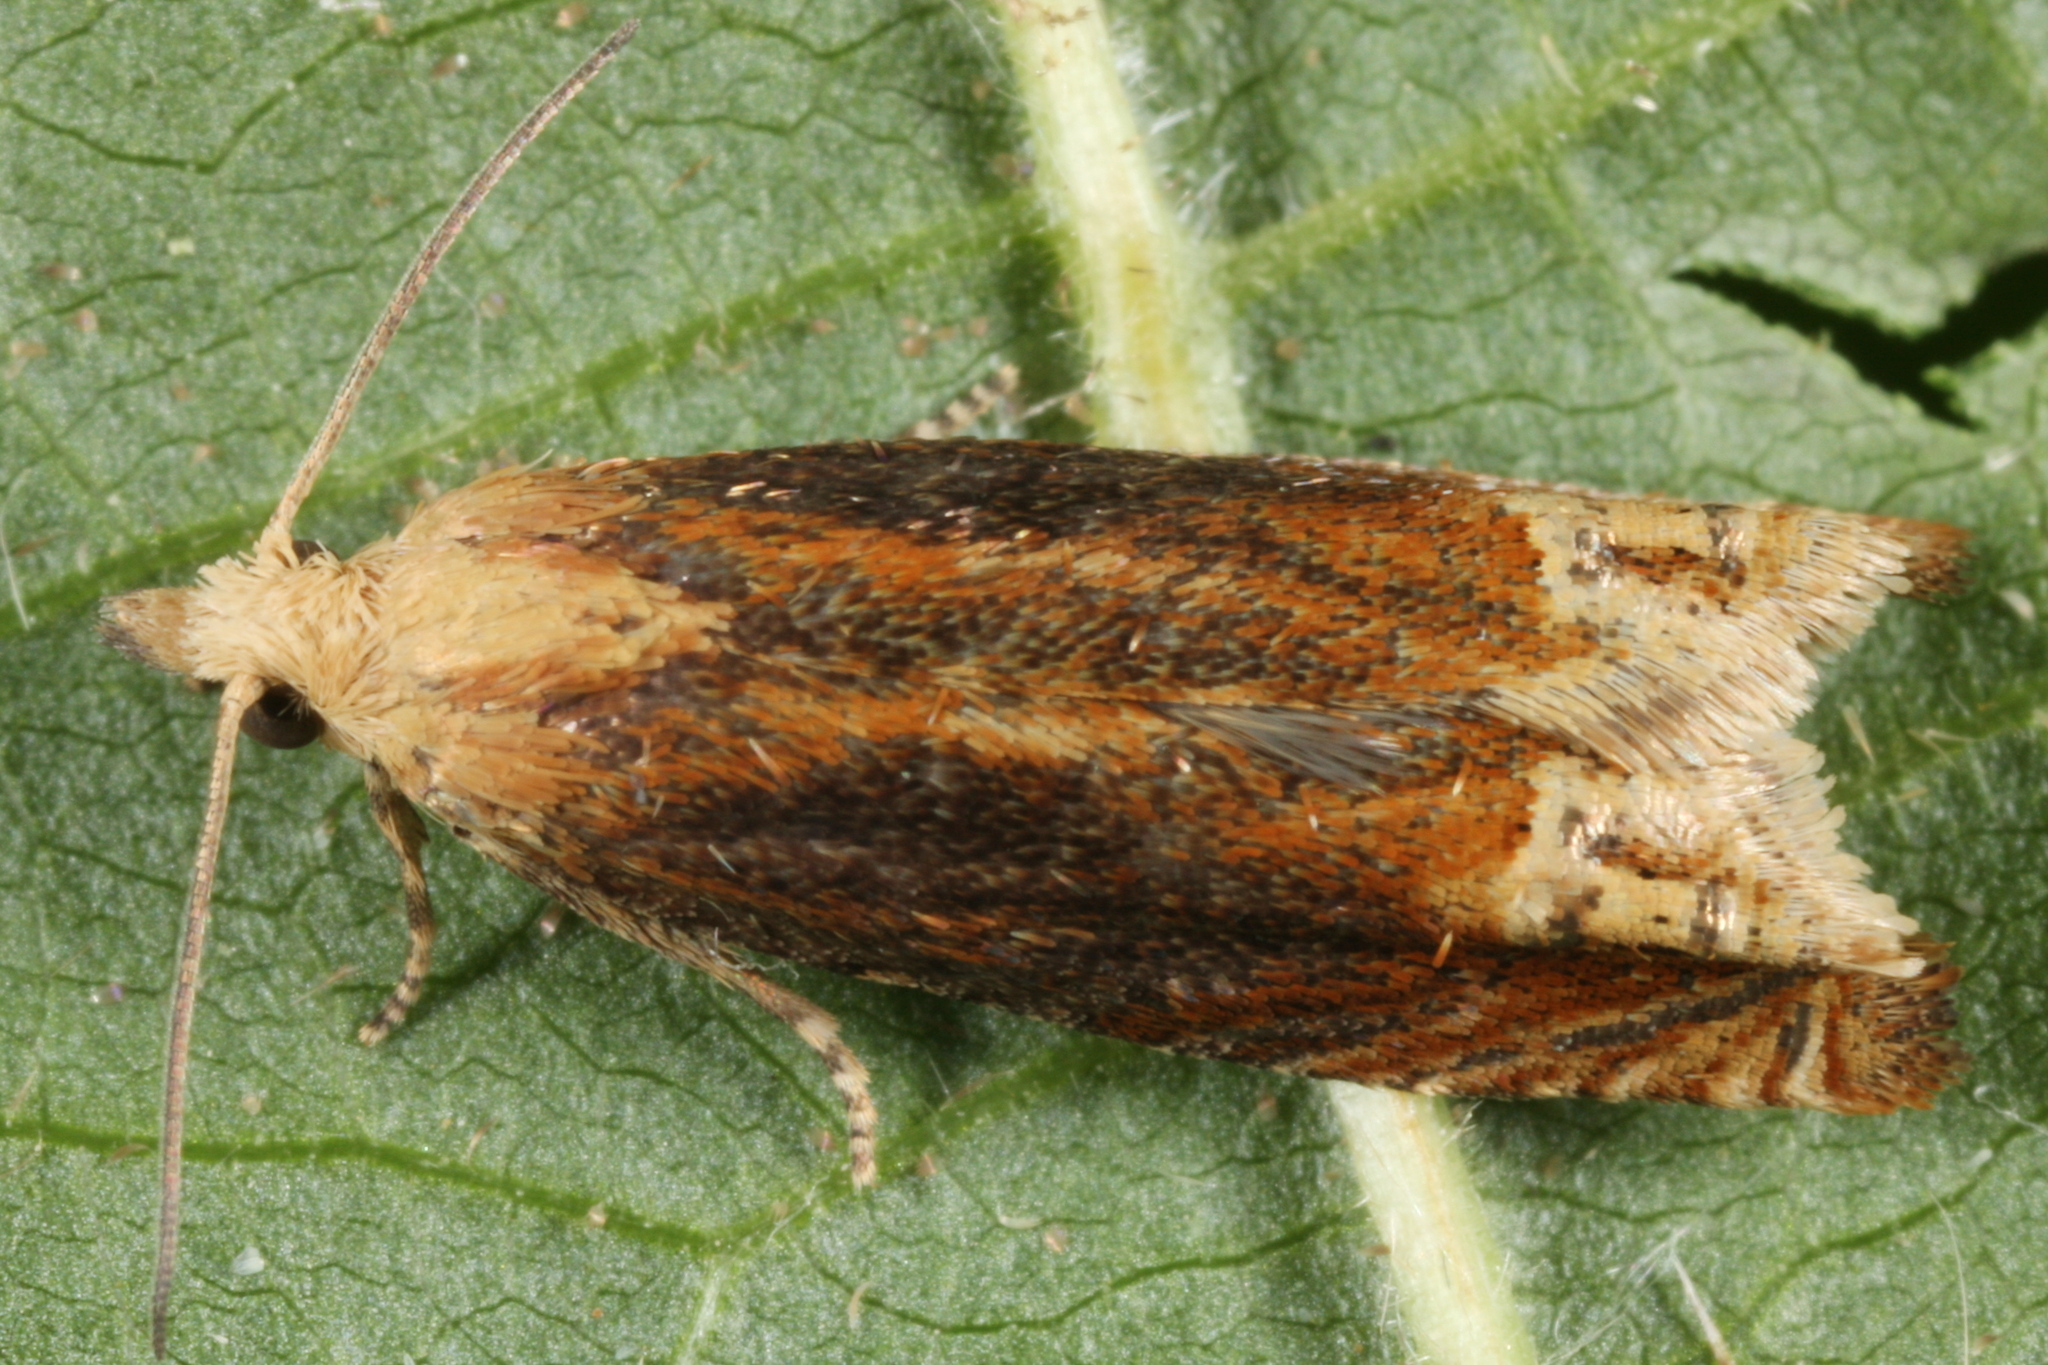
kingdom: Animalia
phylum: Arthropoda
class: Insecta
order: Lepidoptera
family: Tortricidae
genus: Eucosma
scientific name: Eucosma balatonana
